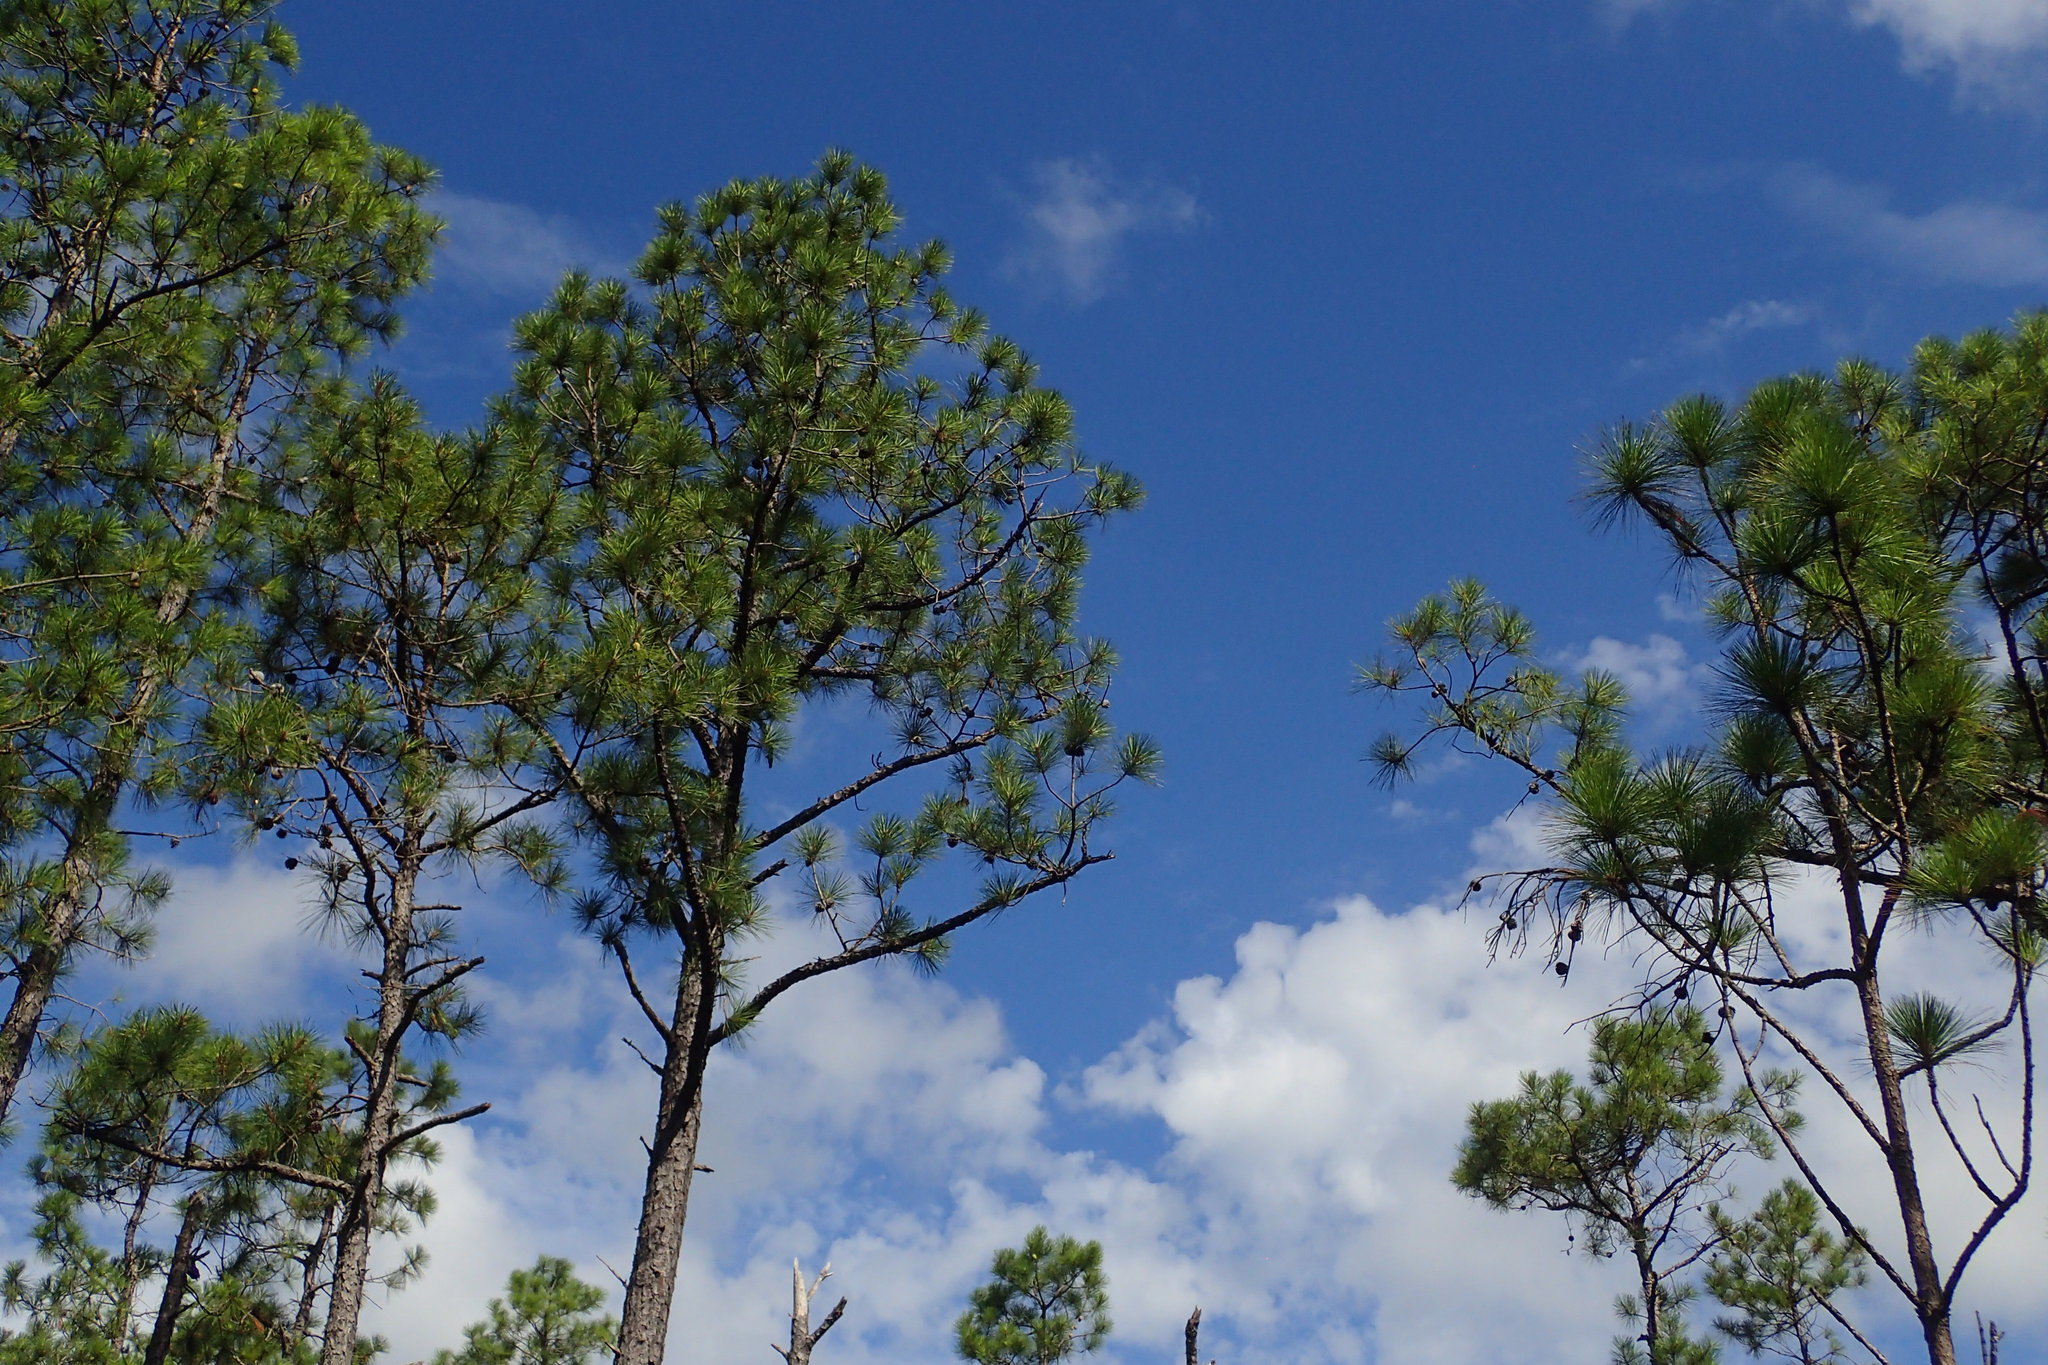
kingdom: Plantae
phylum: Tracheophyta
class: Pinopsida
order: Pinales
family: Pinaceae
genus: Pinus
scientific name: Pinus palustris
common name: Longleaf pine
